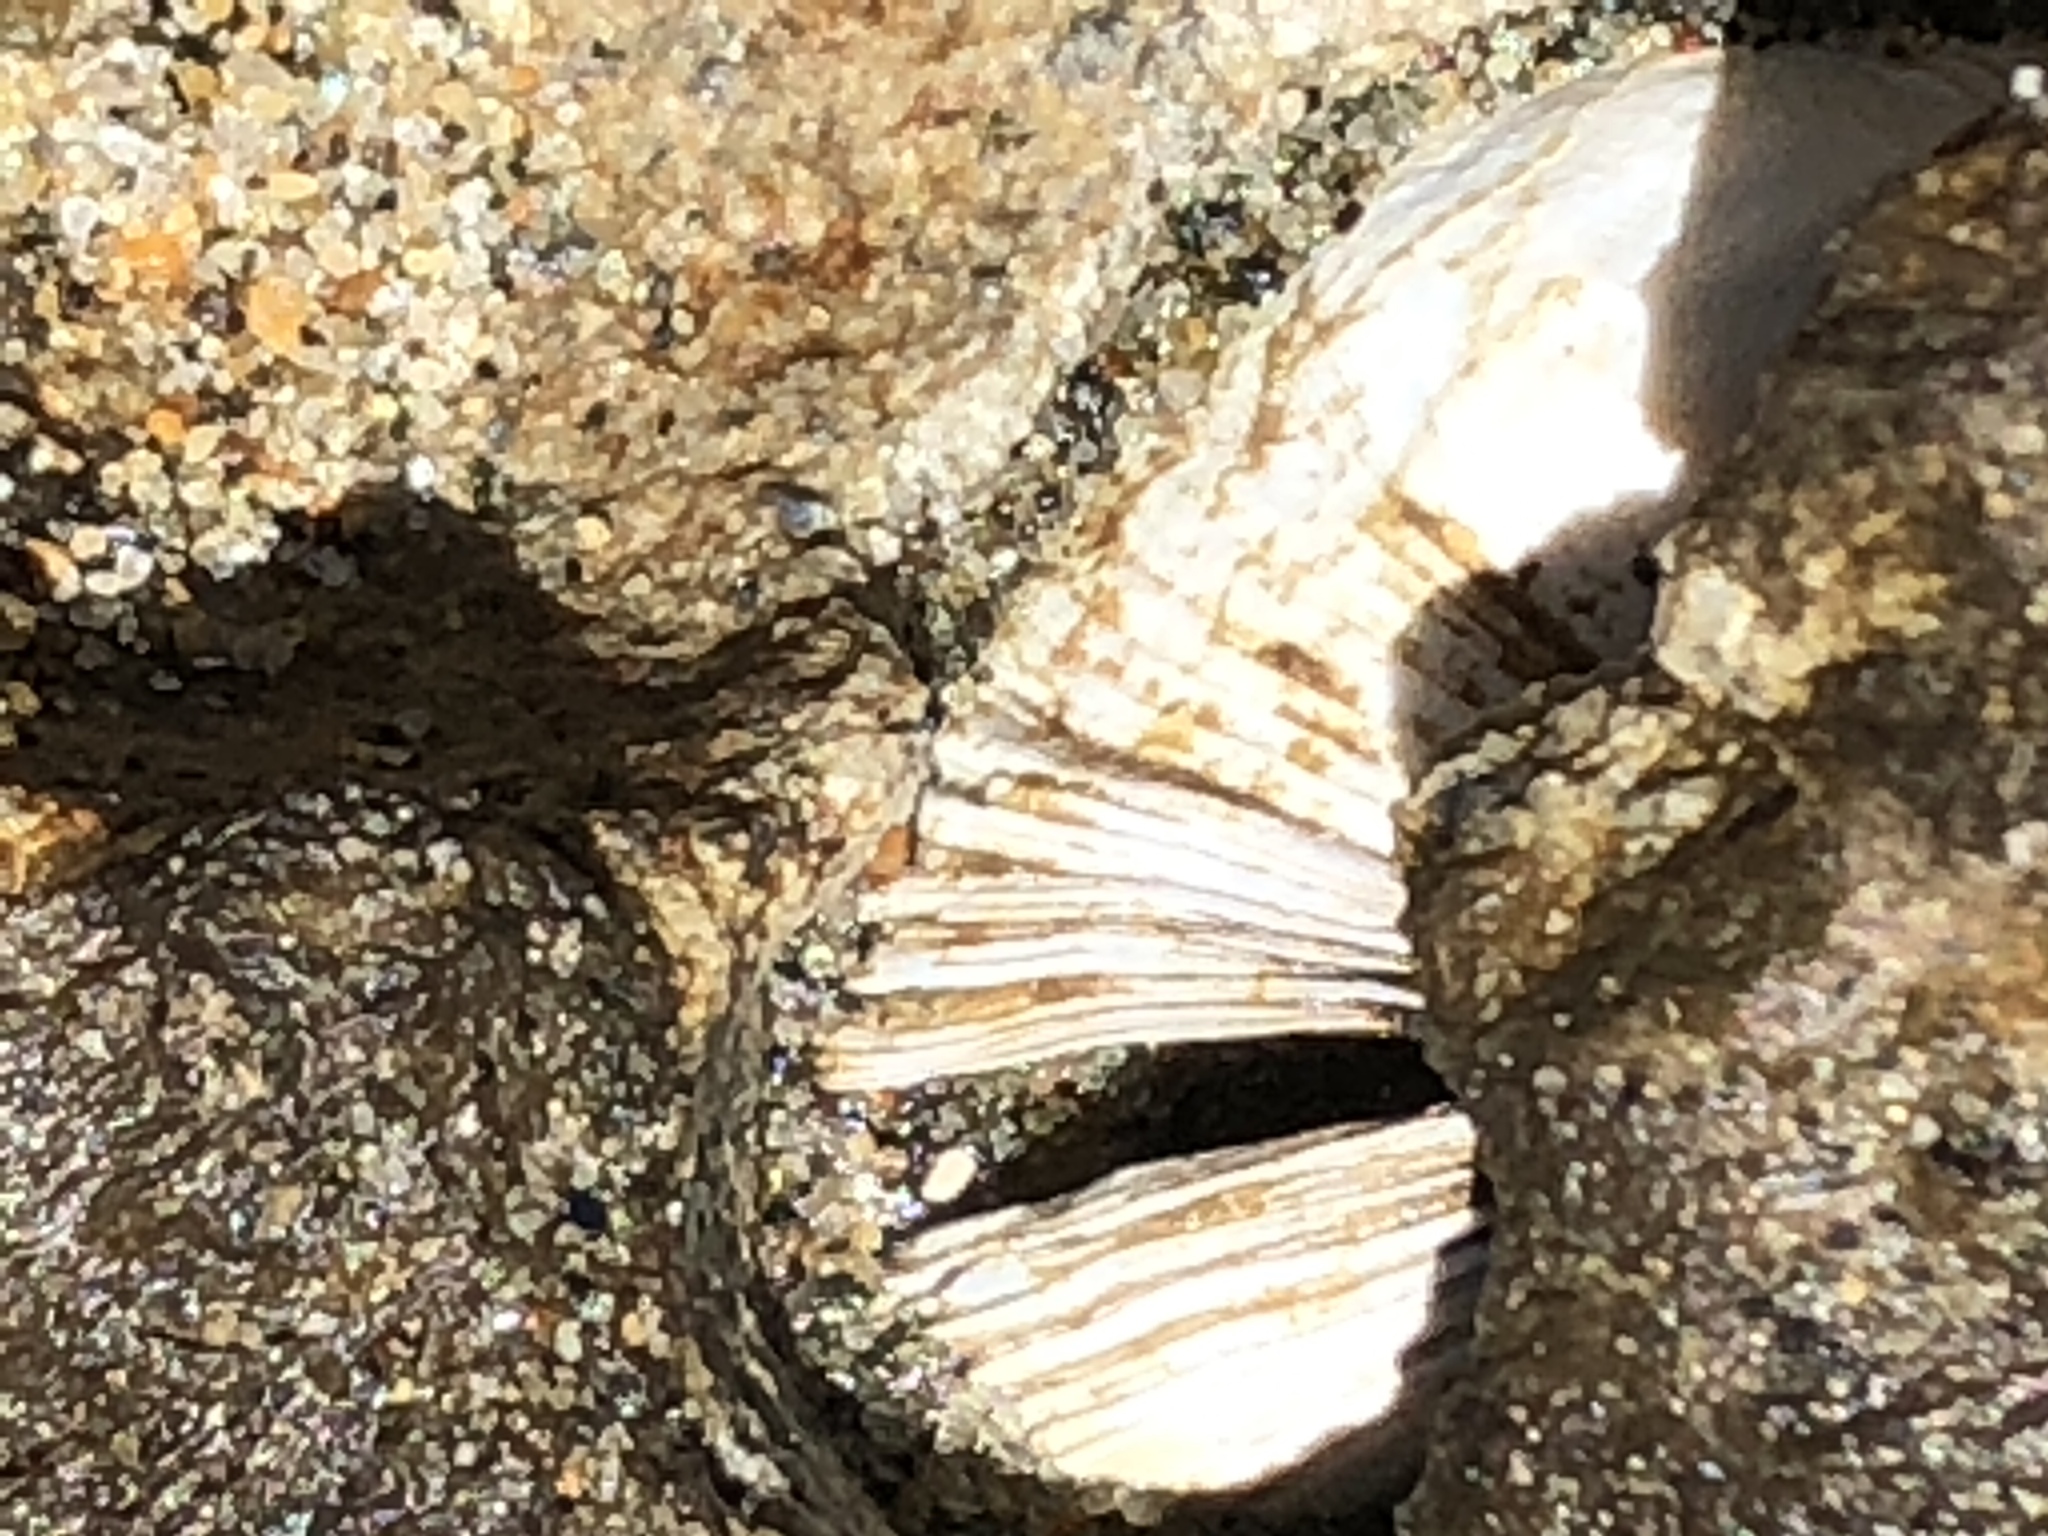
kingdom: Animalia
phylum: Mollusca
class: Bivalvia
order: Venerida
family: Veneridae
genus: Petricola
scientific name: Petricola carditoides
